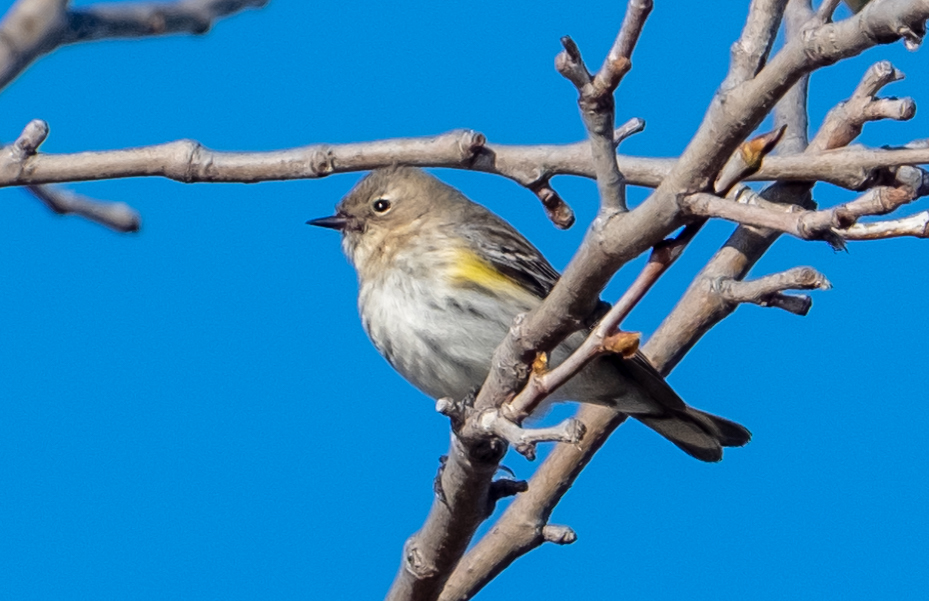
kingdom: Animalia
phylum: Chordata
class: Aves
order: Passeriformes
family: Parulidae
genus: Setophaga
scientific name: Setophaga coronata
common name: Myrtle warbler
